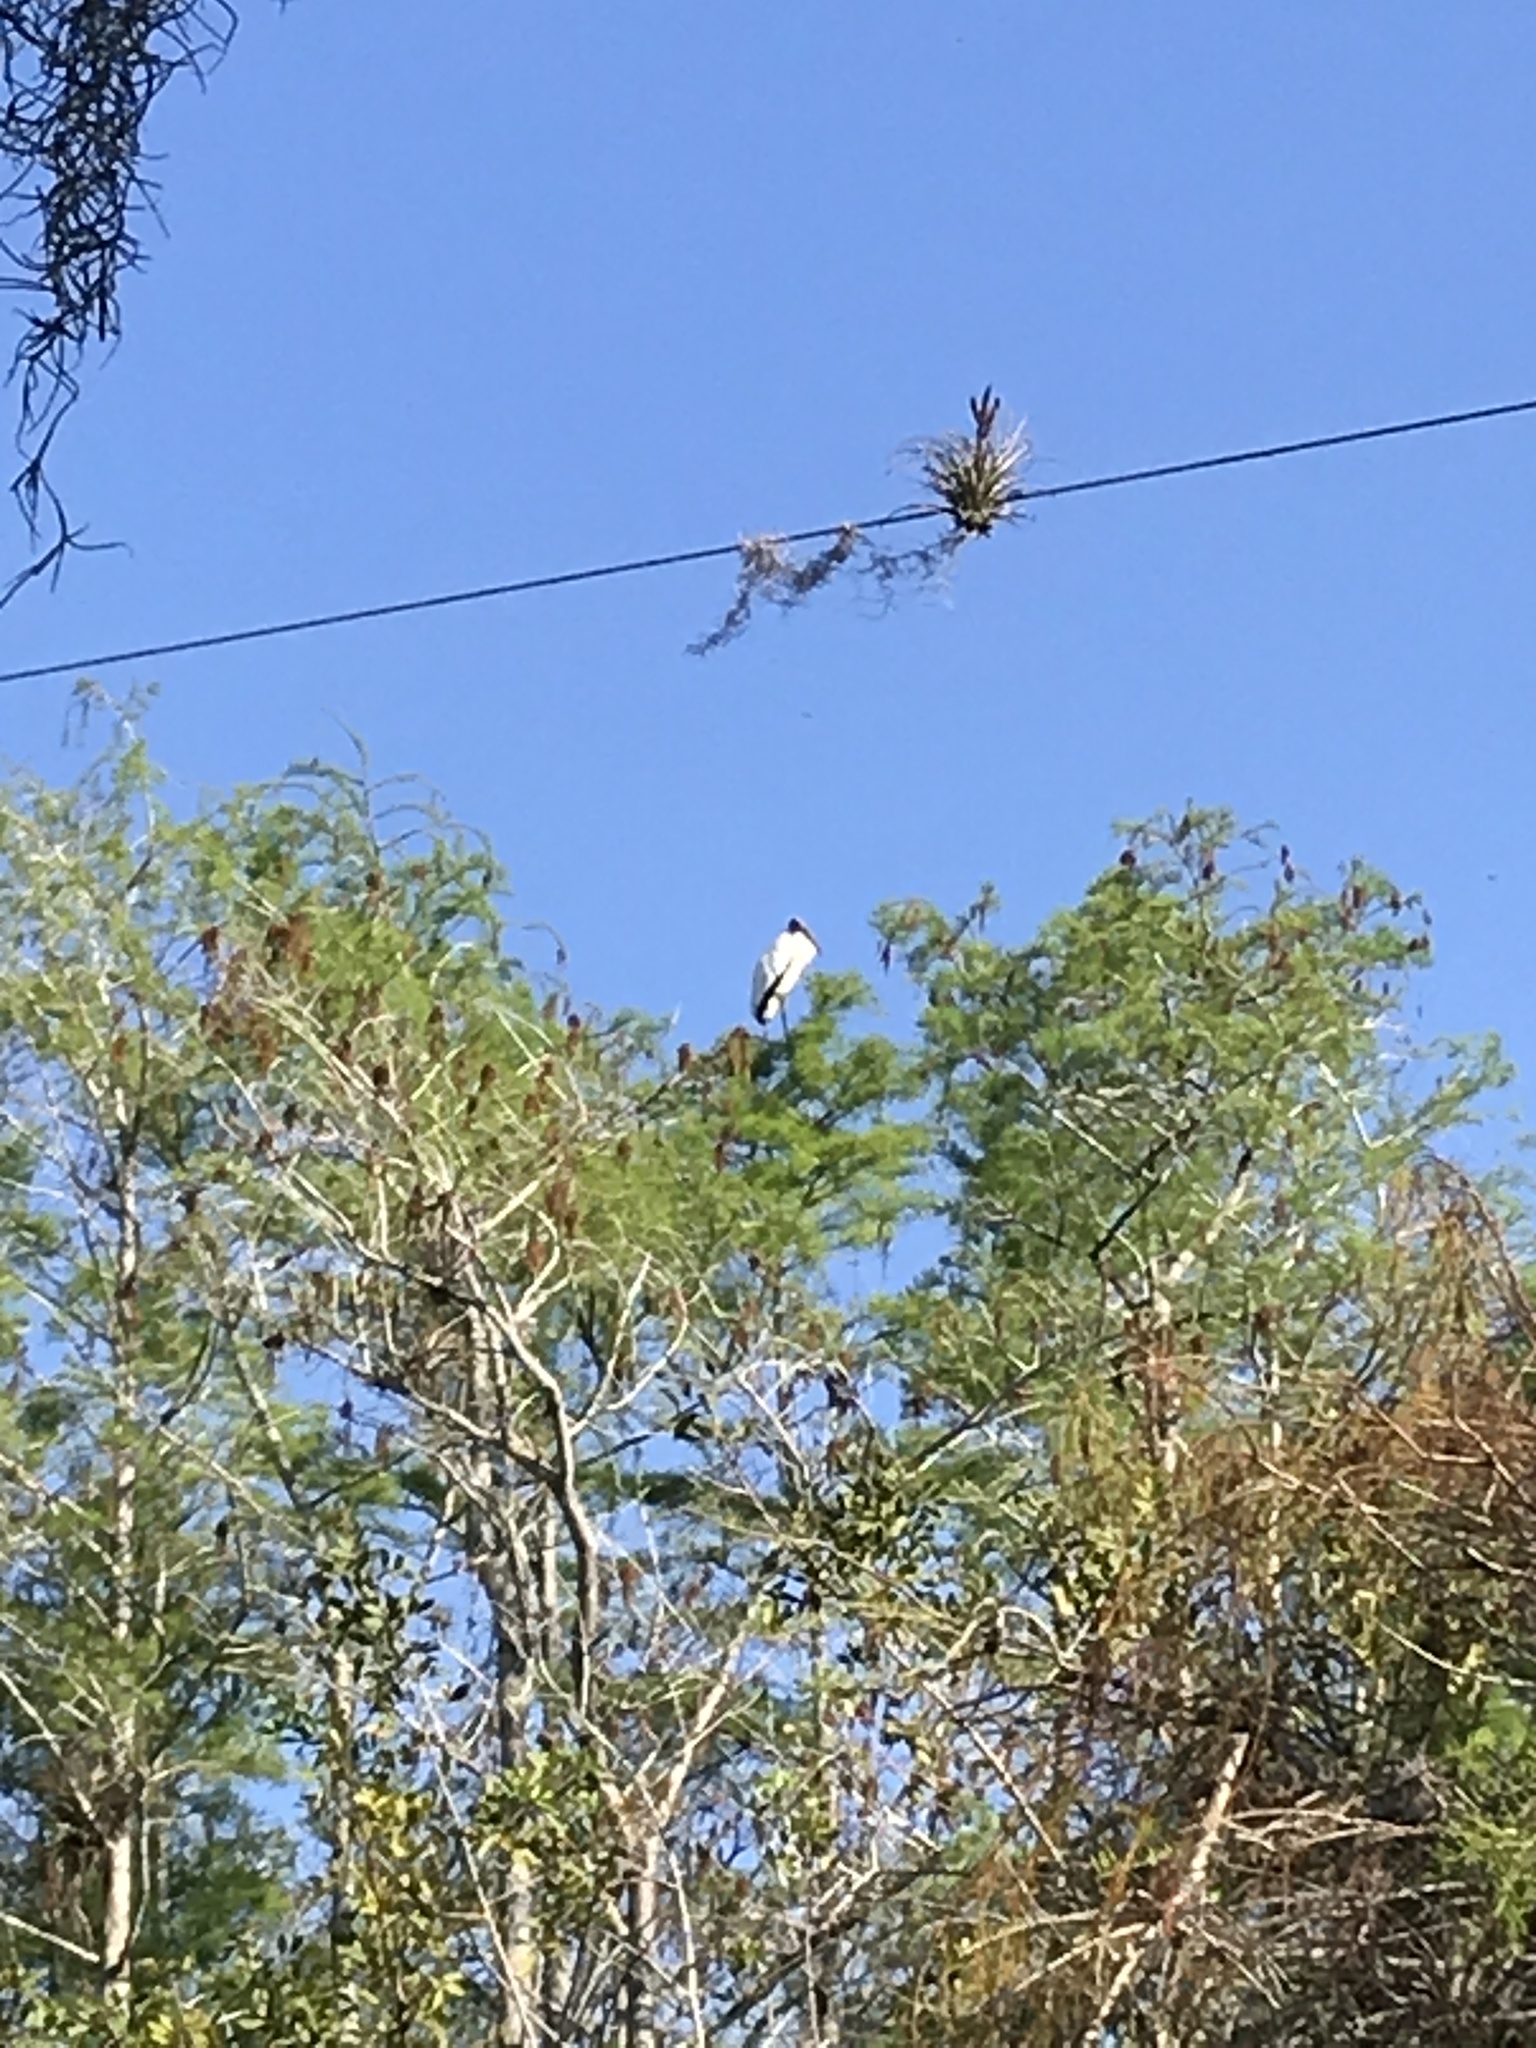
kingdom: Animalia
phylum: Chordata
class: Aves
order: Ciconiiformes
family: Ciconiidae
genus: Mycteria
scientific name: Mycteria americana
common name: Wood stork
